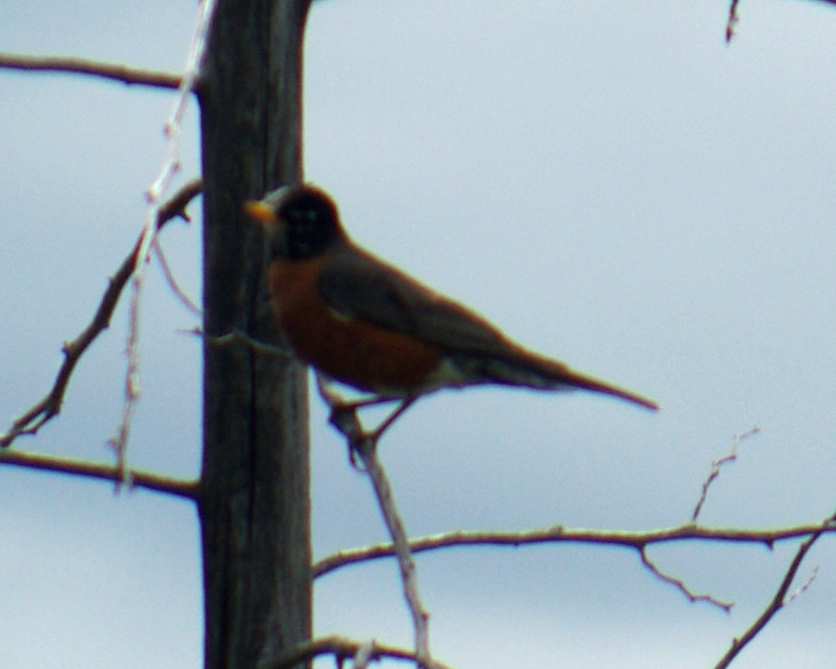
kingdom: Animalia
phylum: Chordata
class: Aves
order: Passeriformes
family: Turdidae
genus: Turdus
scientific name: Turdus migratorius
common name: American robin
